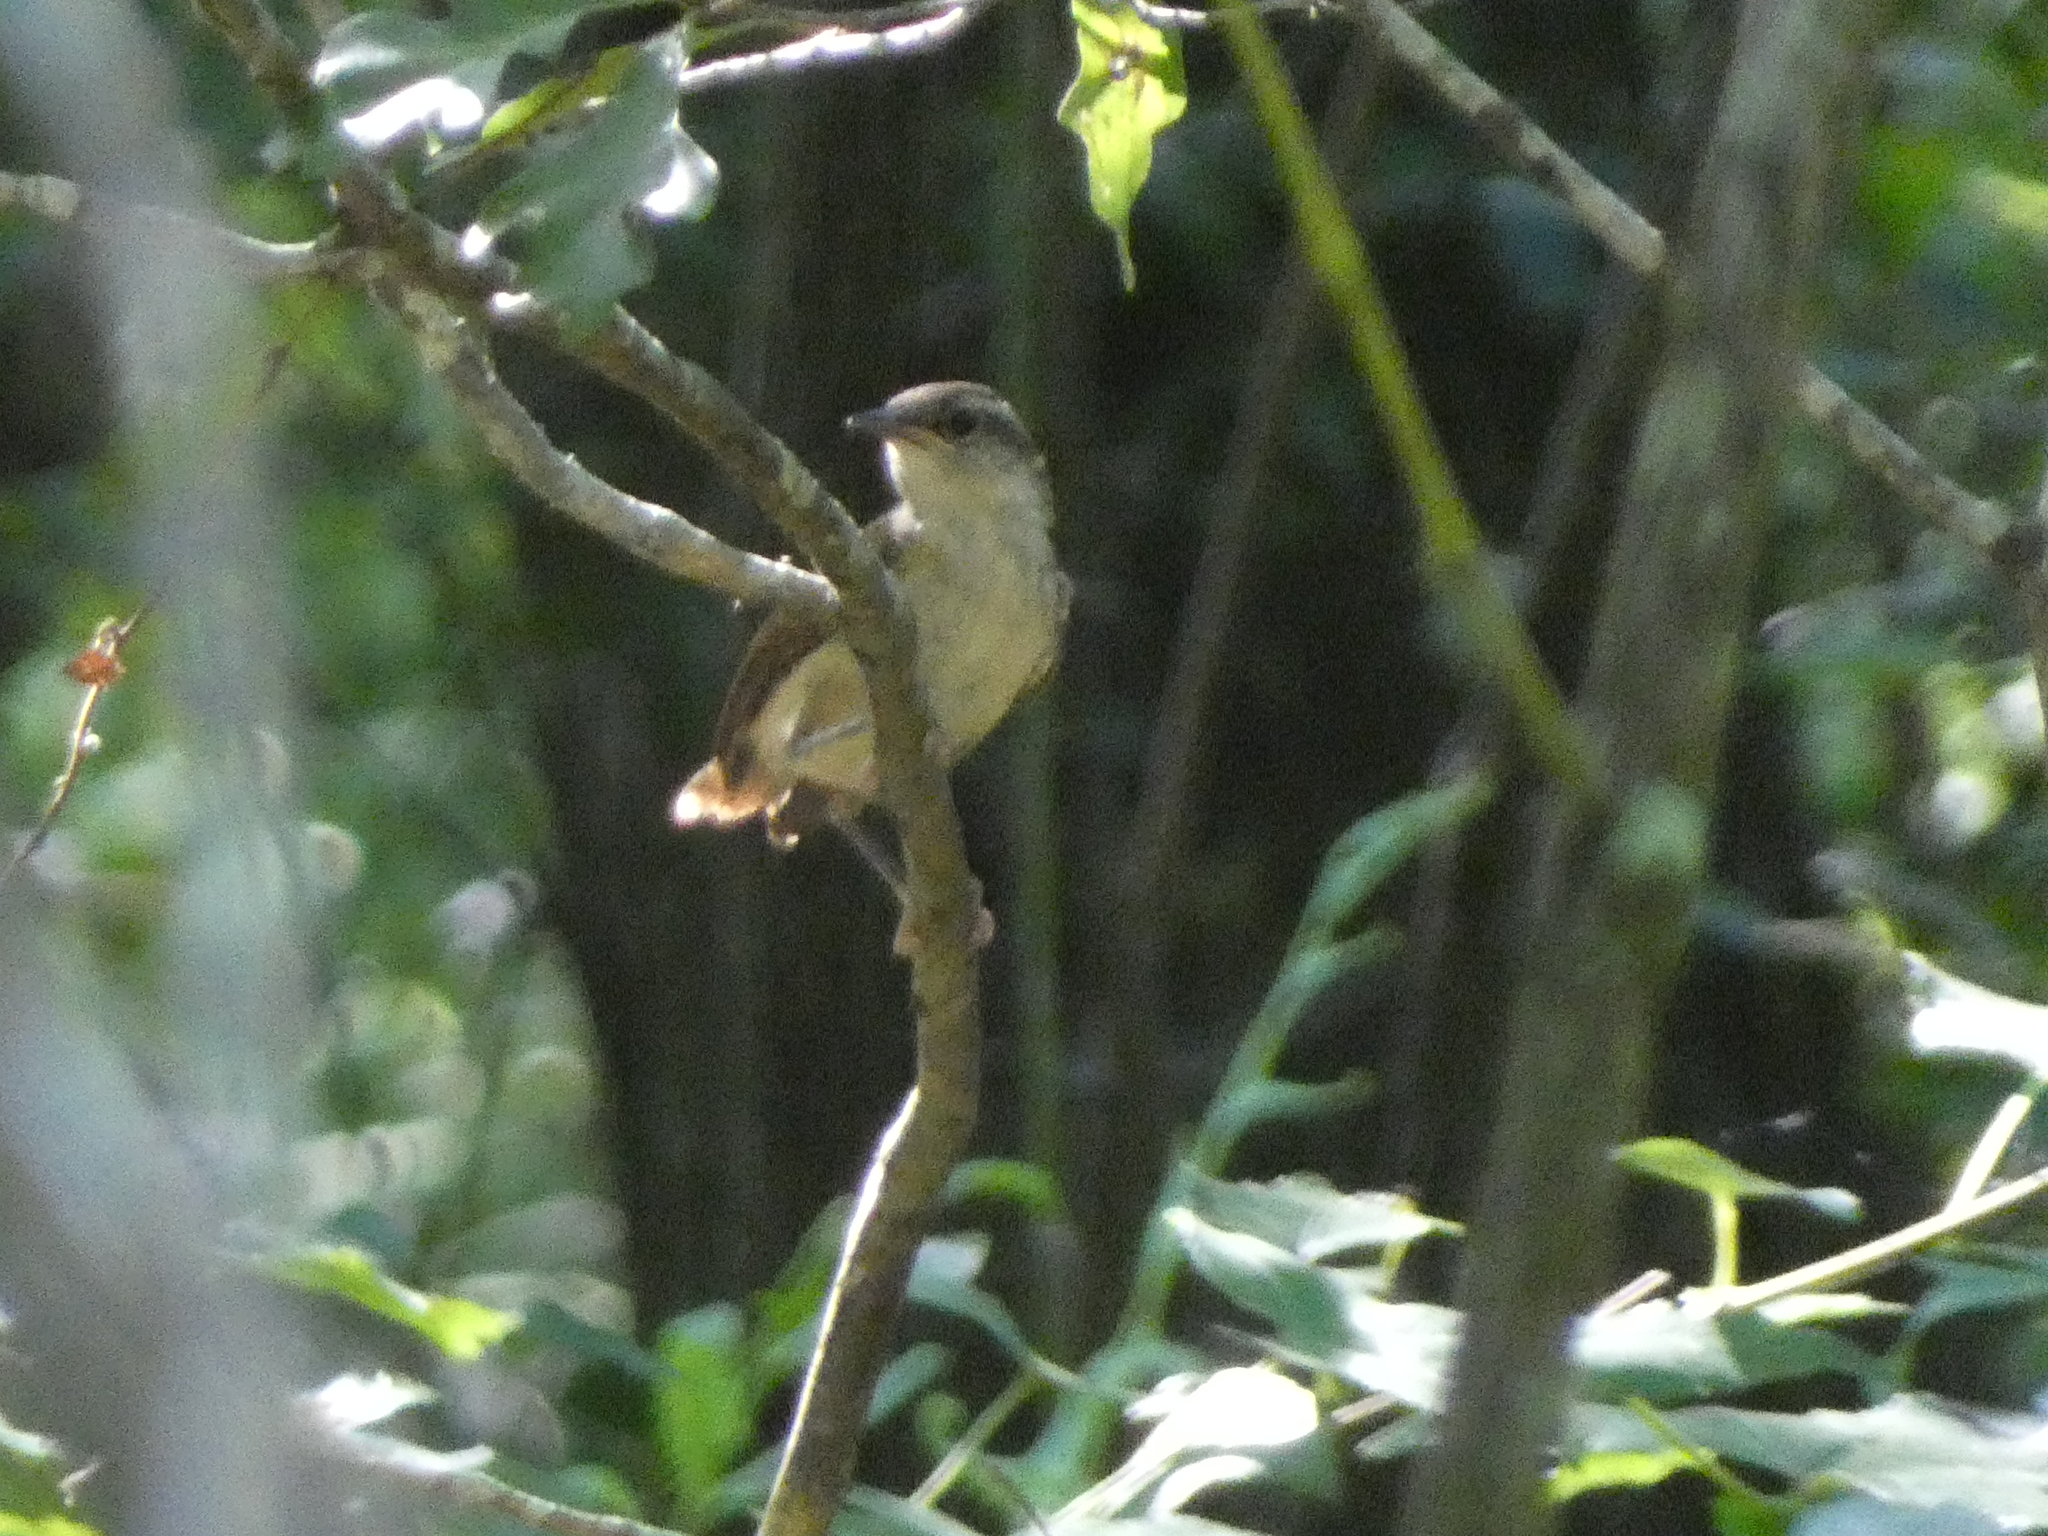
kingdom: Animalia
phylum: Chordata
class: Aves
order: Passeriformes
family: Troglodytidae
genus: Thryothorus
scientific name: Thryothorus ludovicianus
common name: Carolina wren
